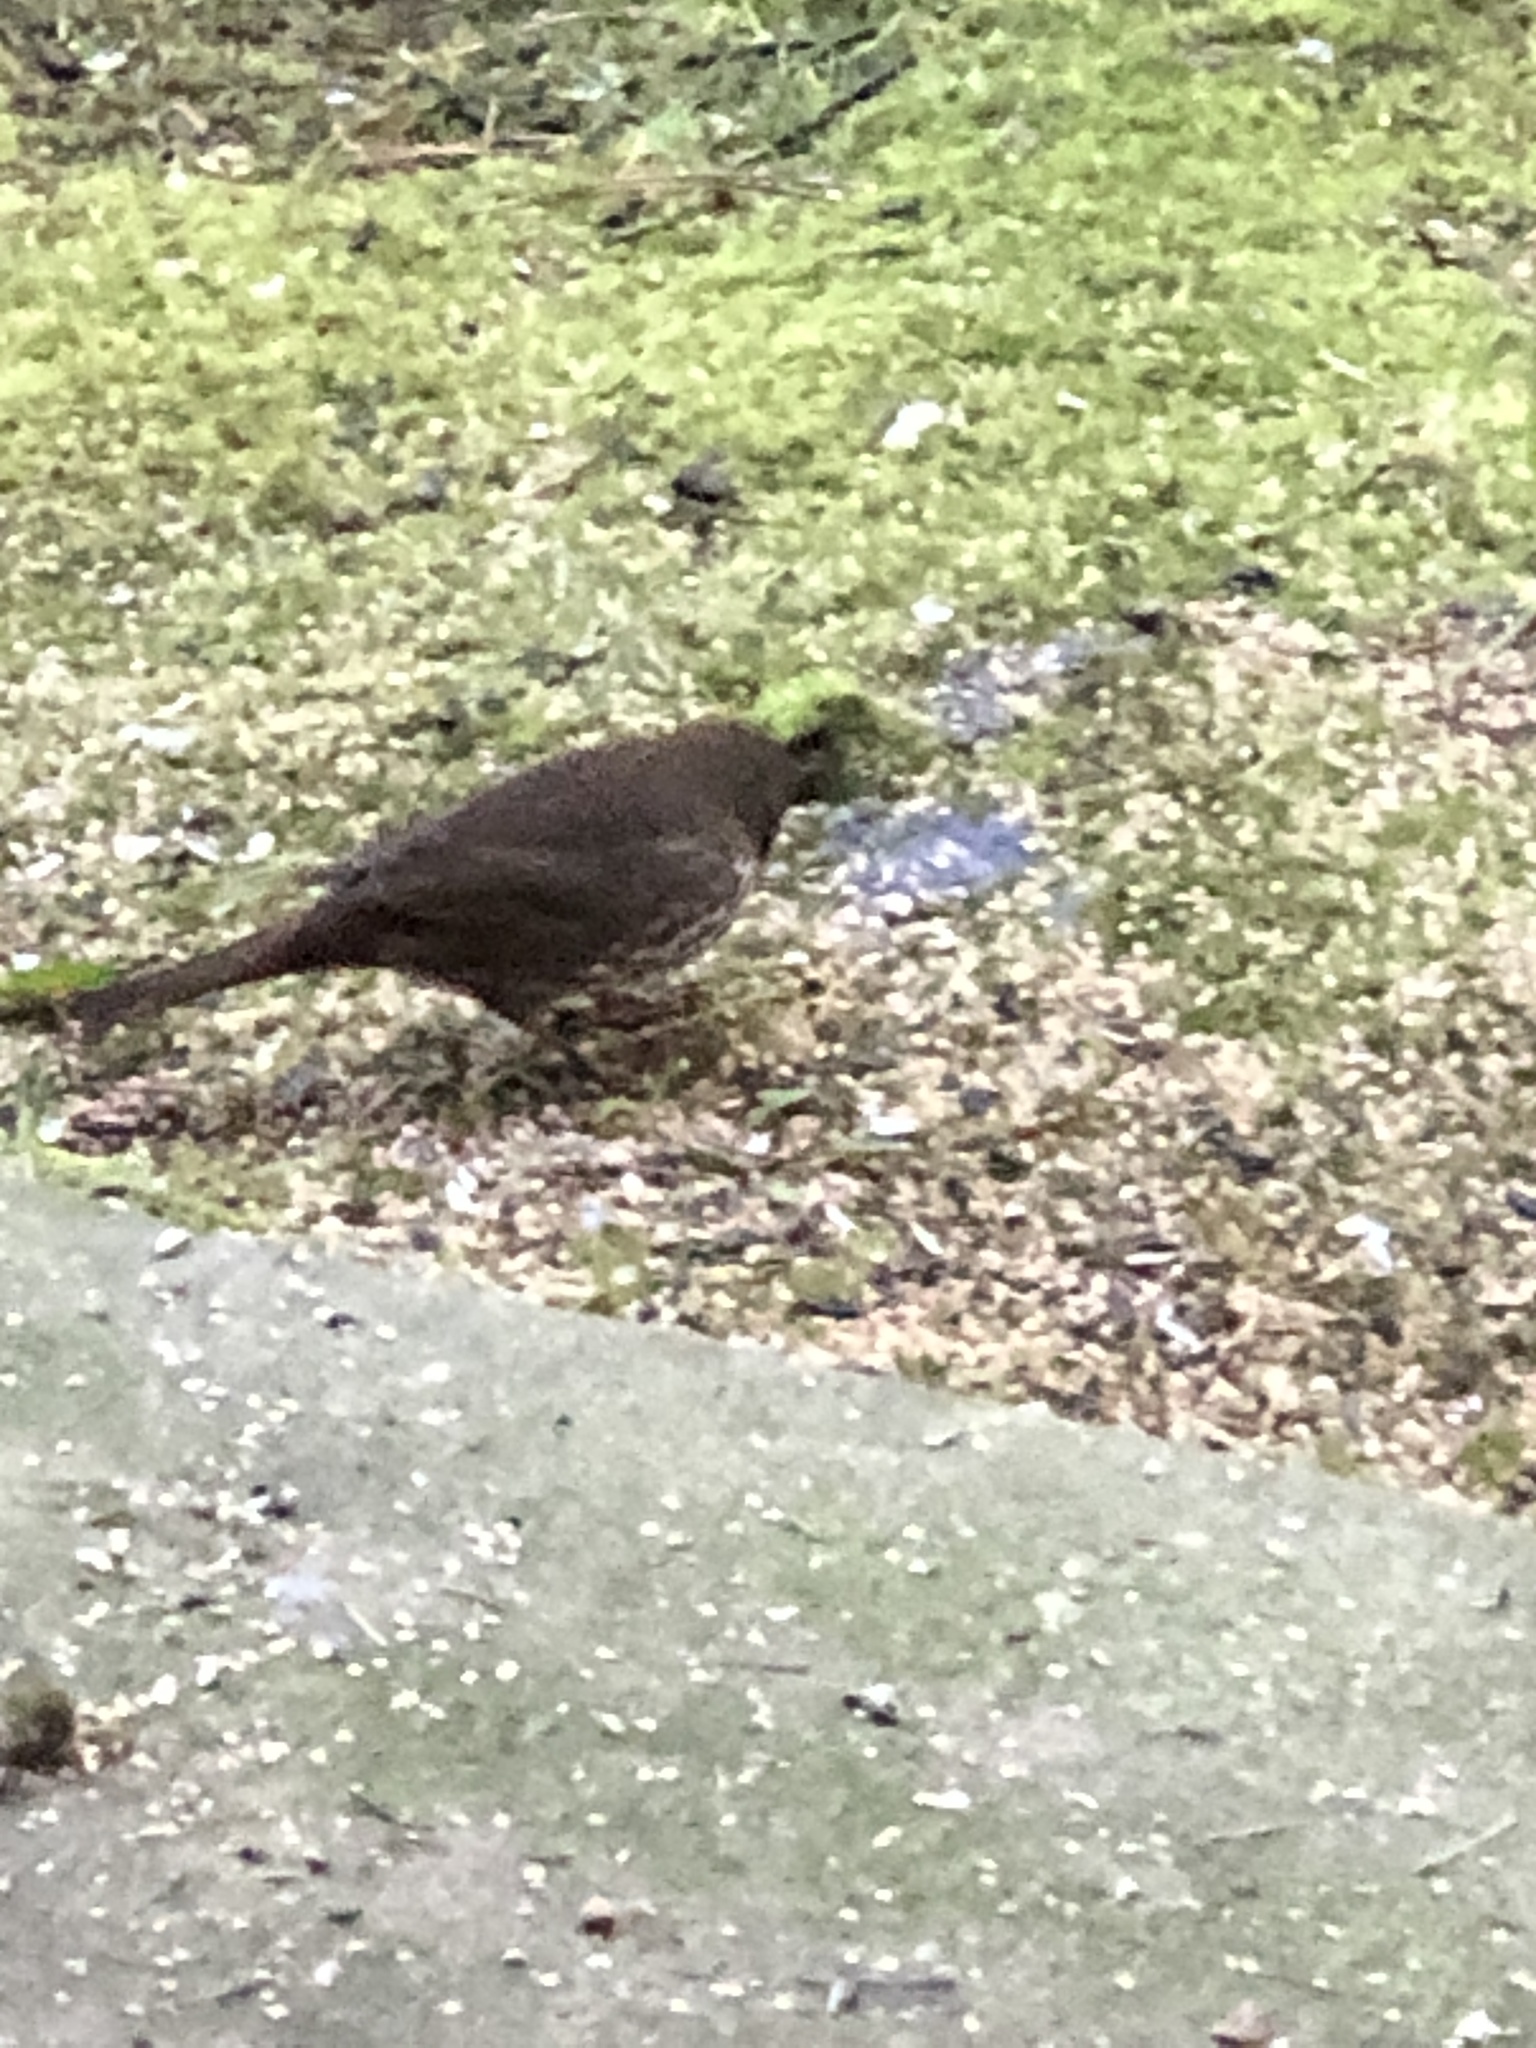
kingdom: Animalia
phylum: Chordata
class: Aves
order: Passeriformes
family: Passerellidae
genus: Passerella
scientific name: Passerella iliaca
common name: Fox sparrow
